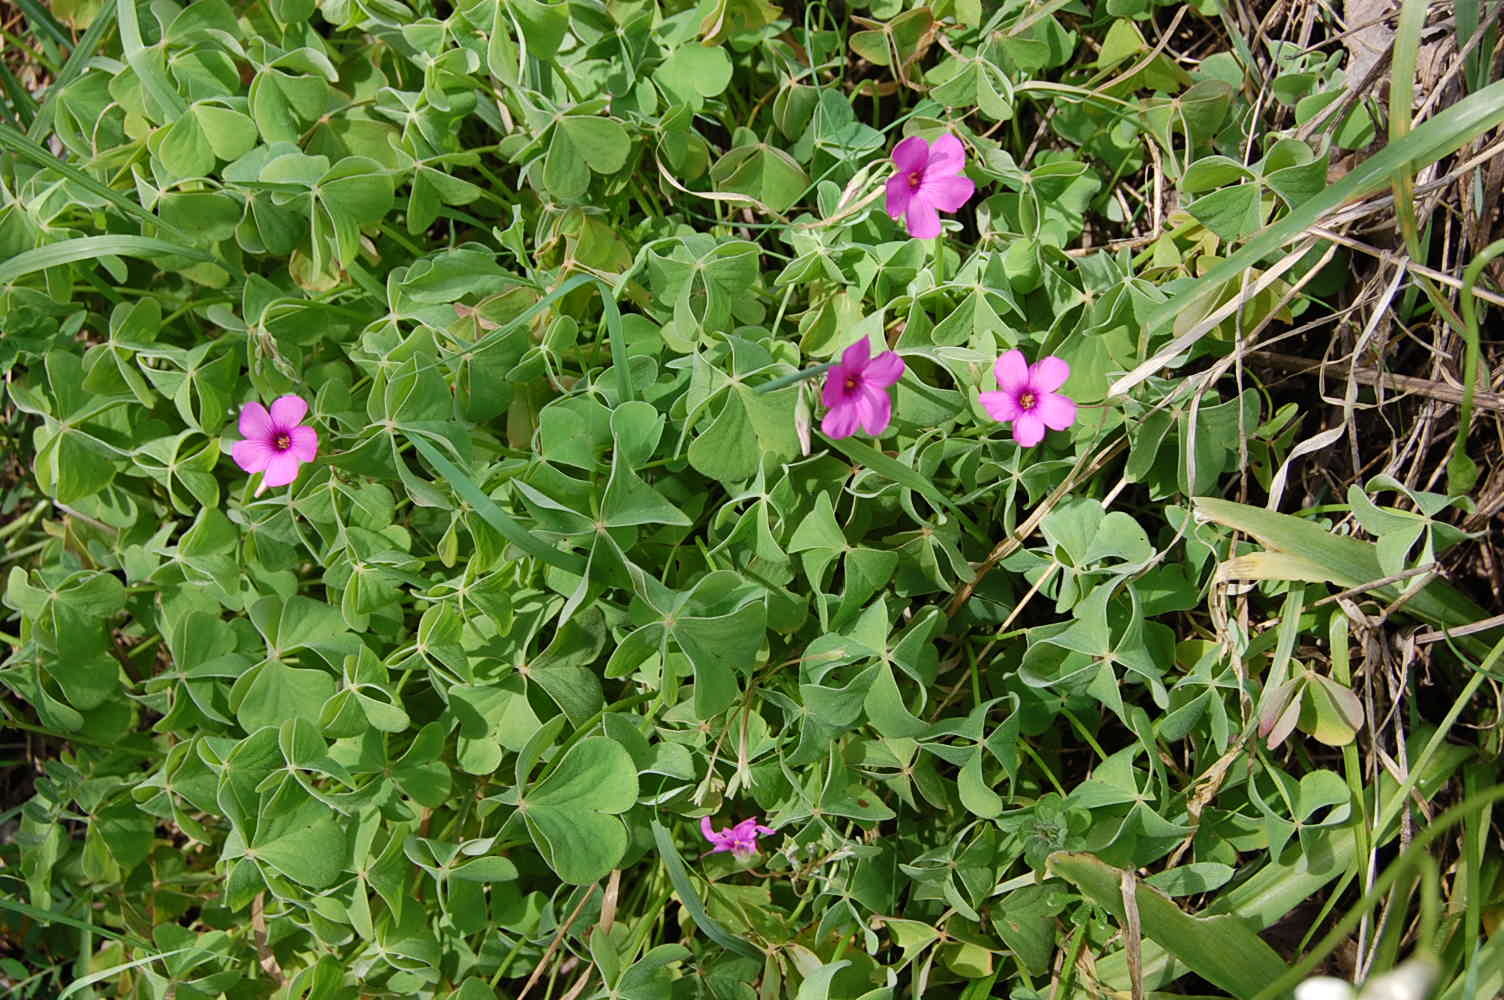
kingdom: Plantae
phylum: Tracheophyta
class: Magnoliopsida
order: Oxalidales
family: Oxalidaceae
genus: Oxalis
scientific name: Oxalis articulata
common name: Pink-sorrel
